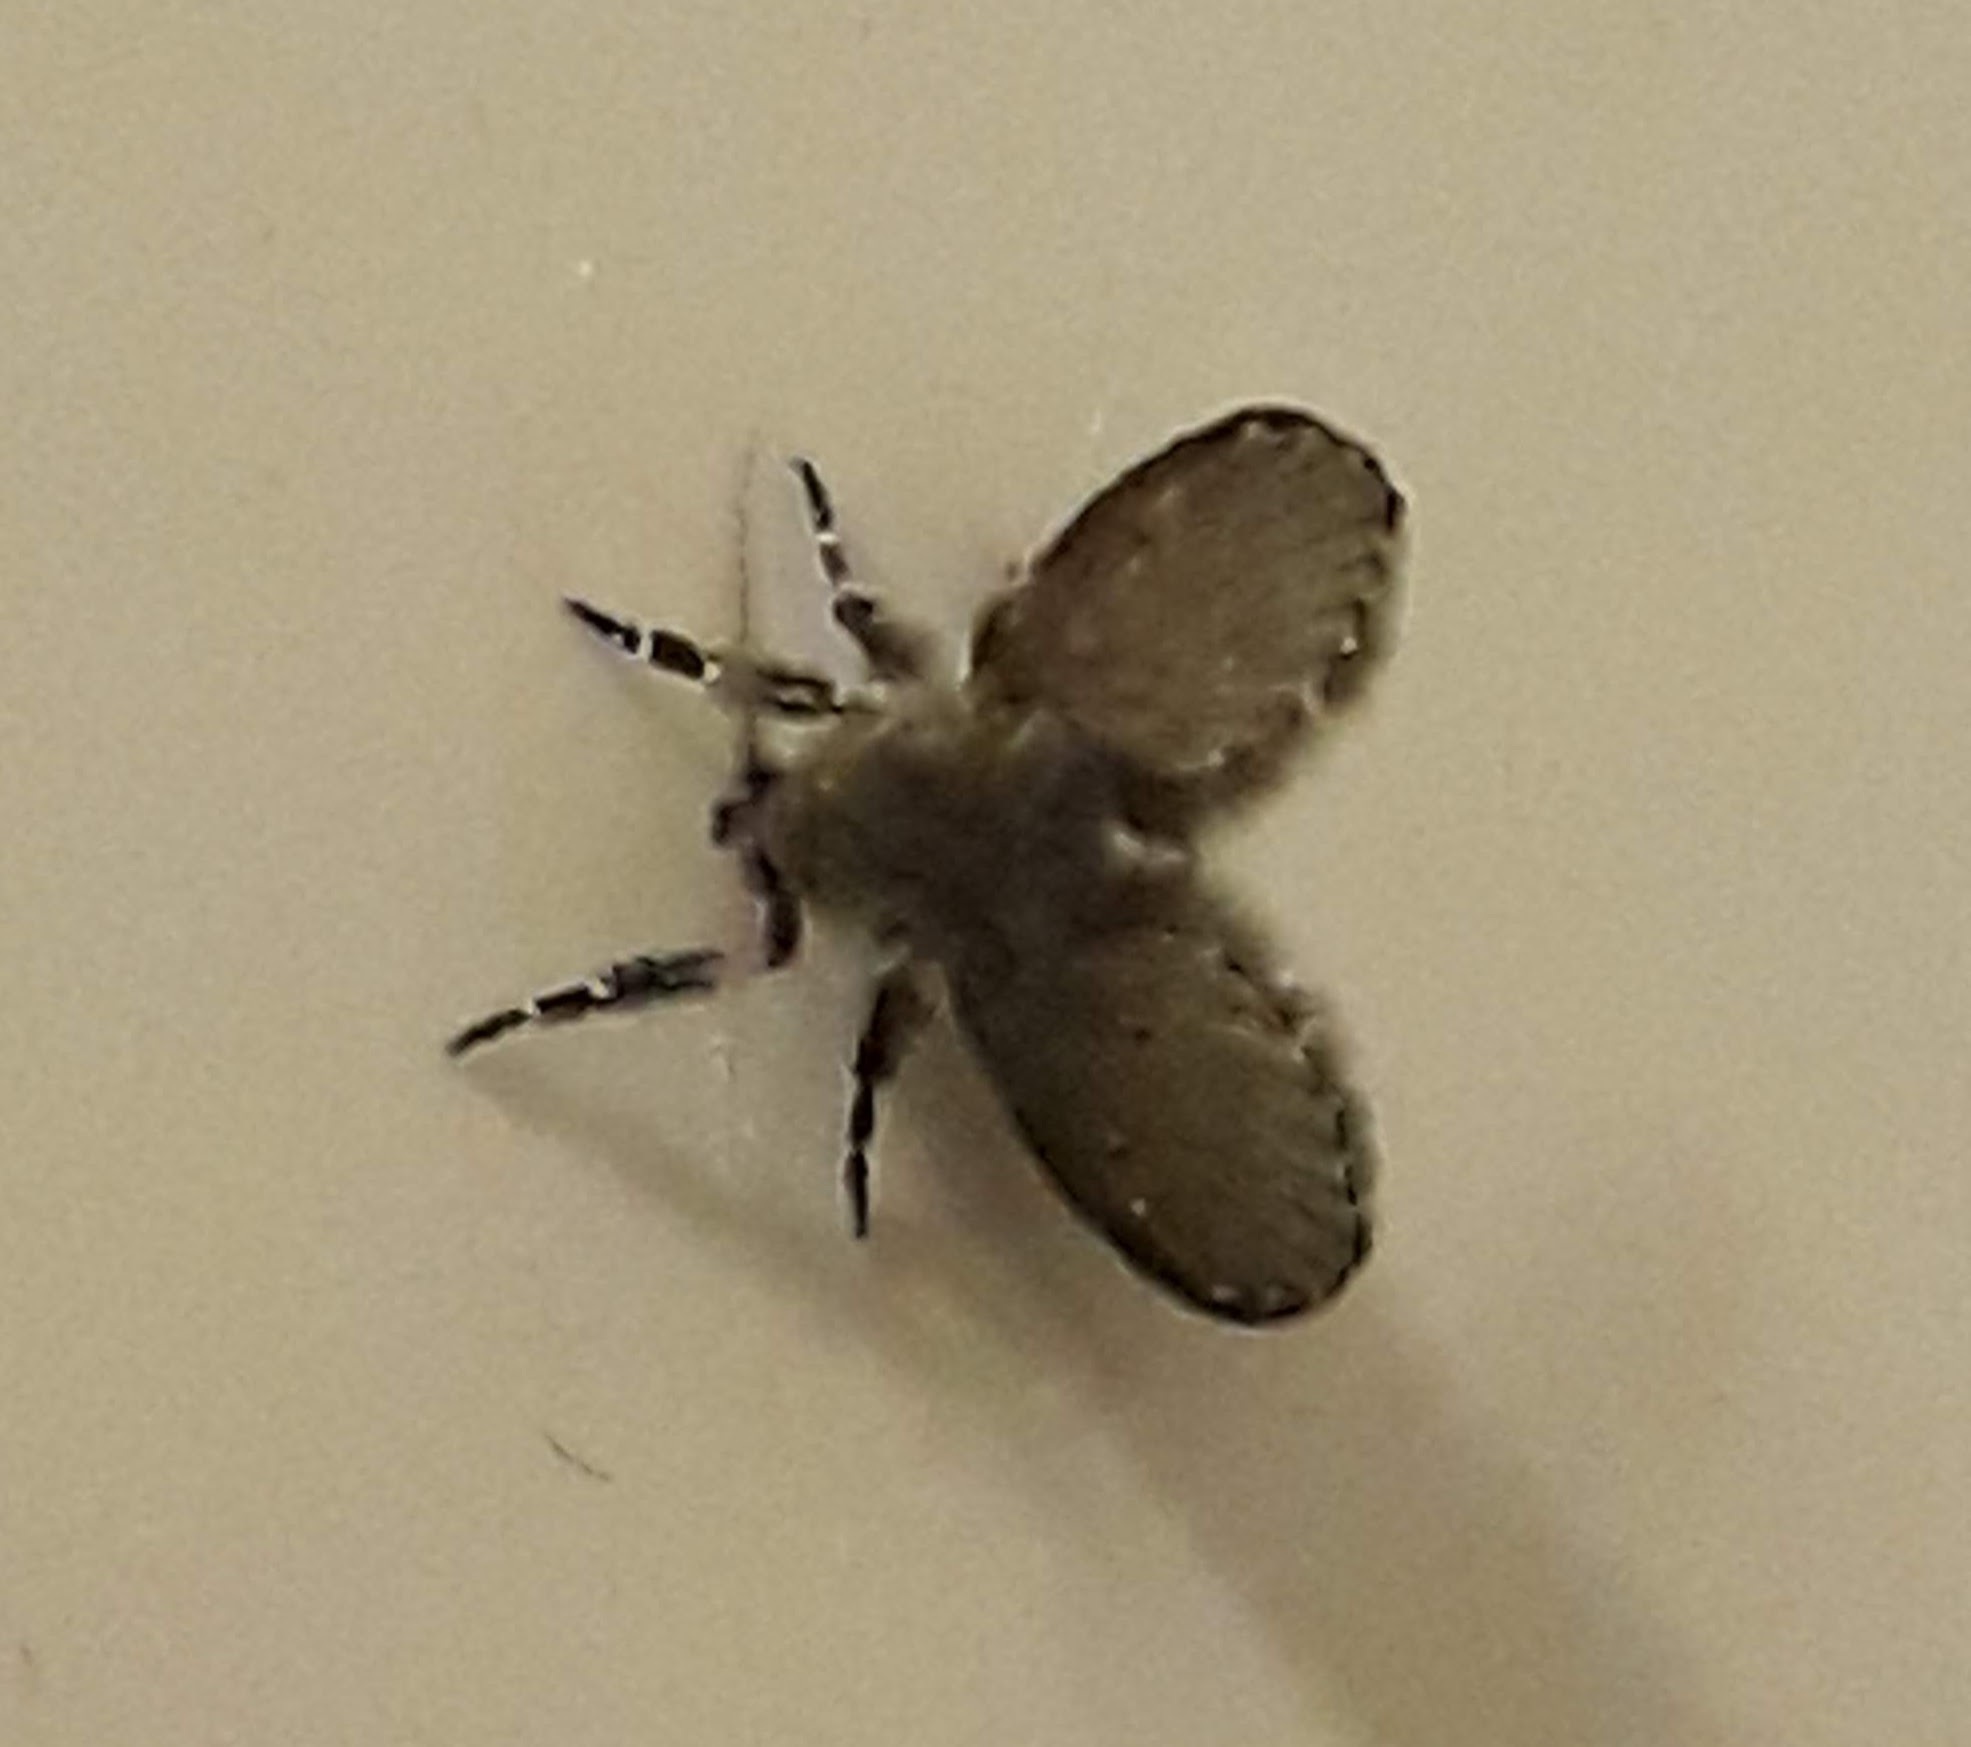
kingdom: Animalia
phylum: Arthropoda
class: Insecta
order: Diptera
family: Psychodidae
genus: Clogmia
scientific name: Clogmia albipunctatus
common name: White-spotted moth fly
